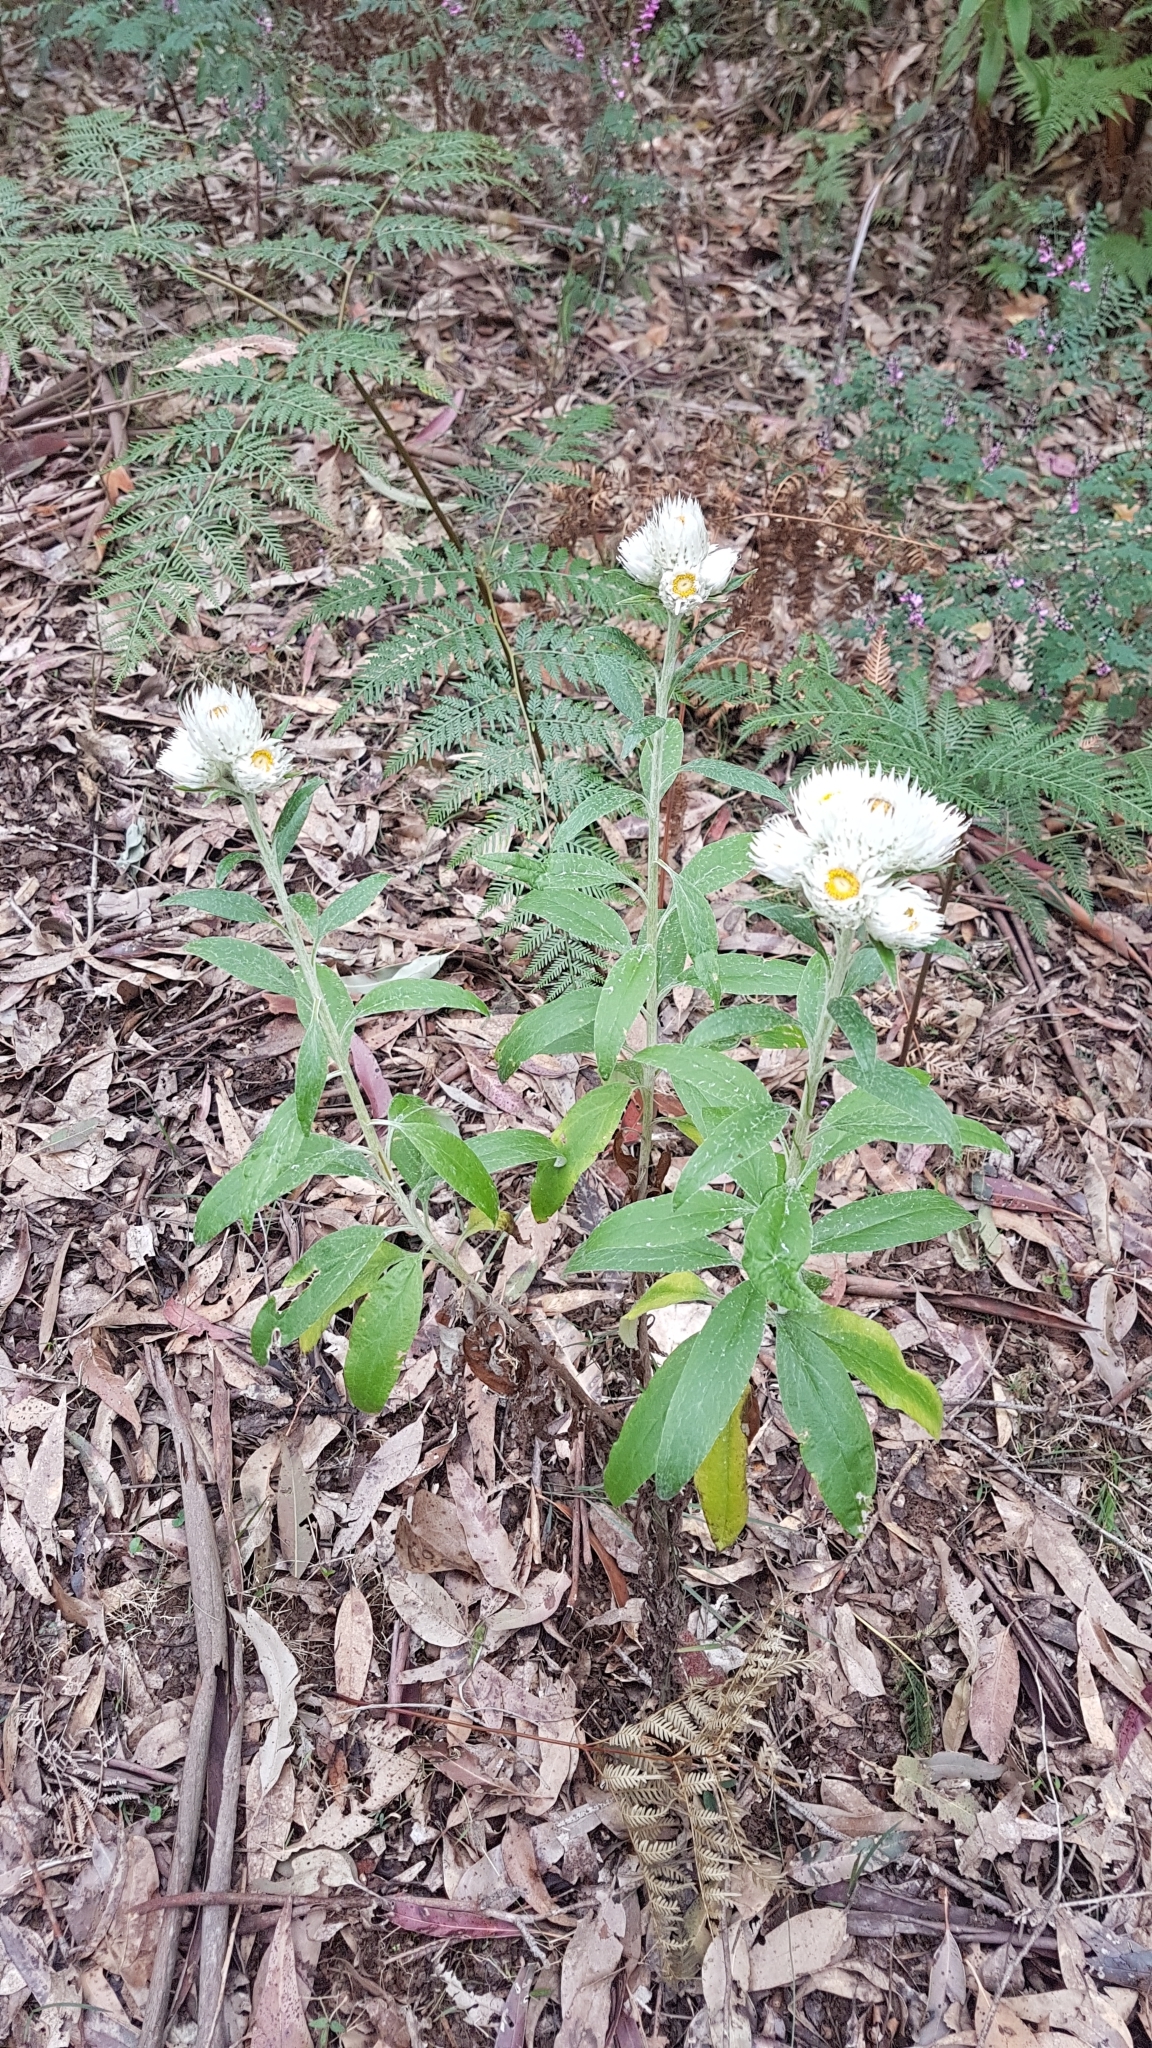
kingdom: Plantae
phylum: Tracheophyta
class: Magnoliopsida
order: Asterales
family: Asteraceae
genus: Leucozoma
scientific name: Leucozoma elatum
